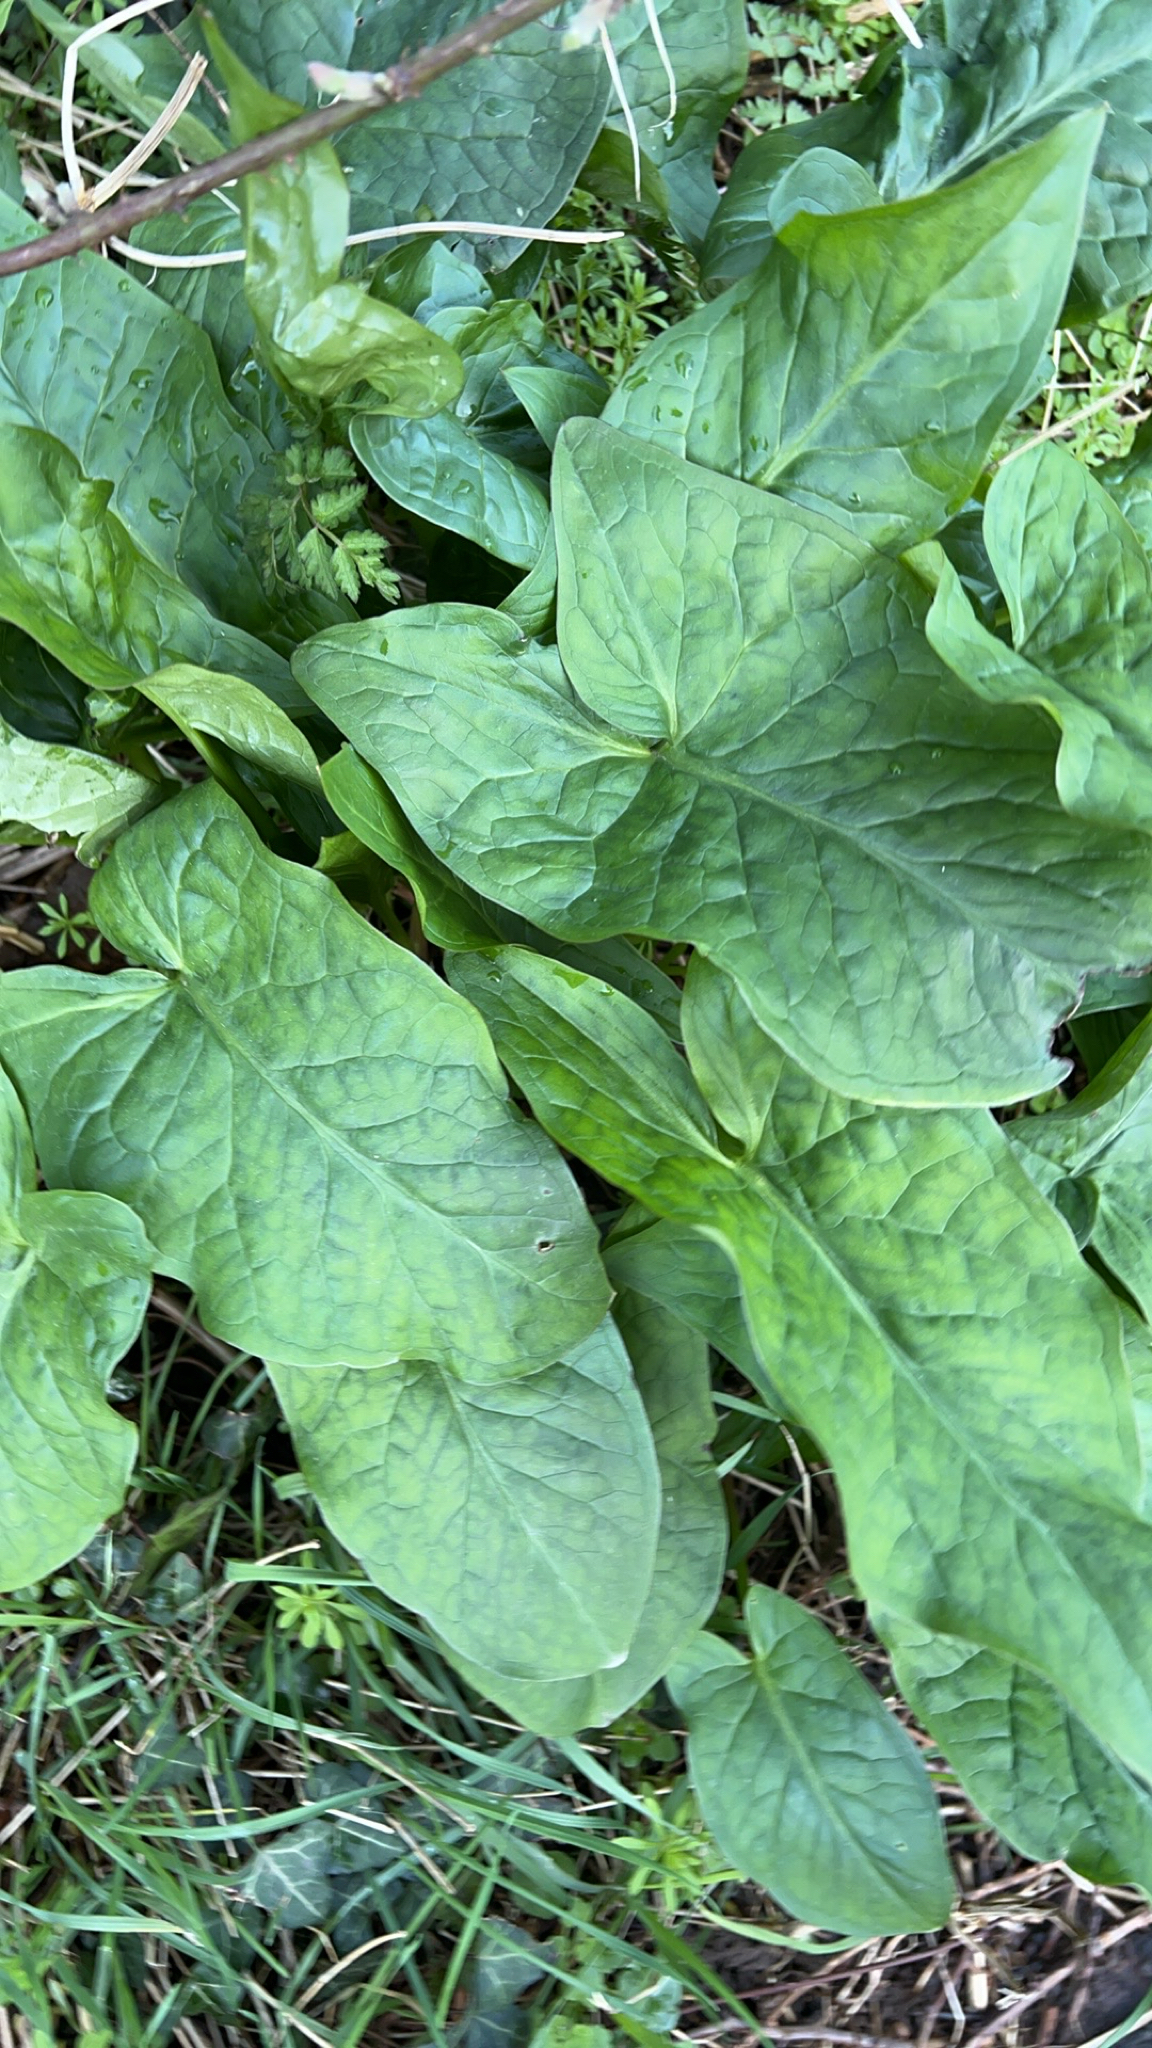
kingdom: Plantae
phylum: Tracheophyta
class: Liliopsida
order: Alismatales
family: Araceae
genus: Arum
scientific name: Arum maculatum
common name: Lords-and-ladies
